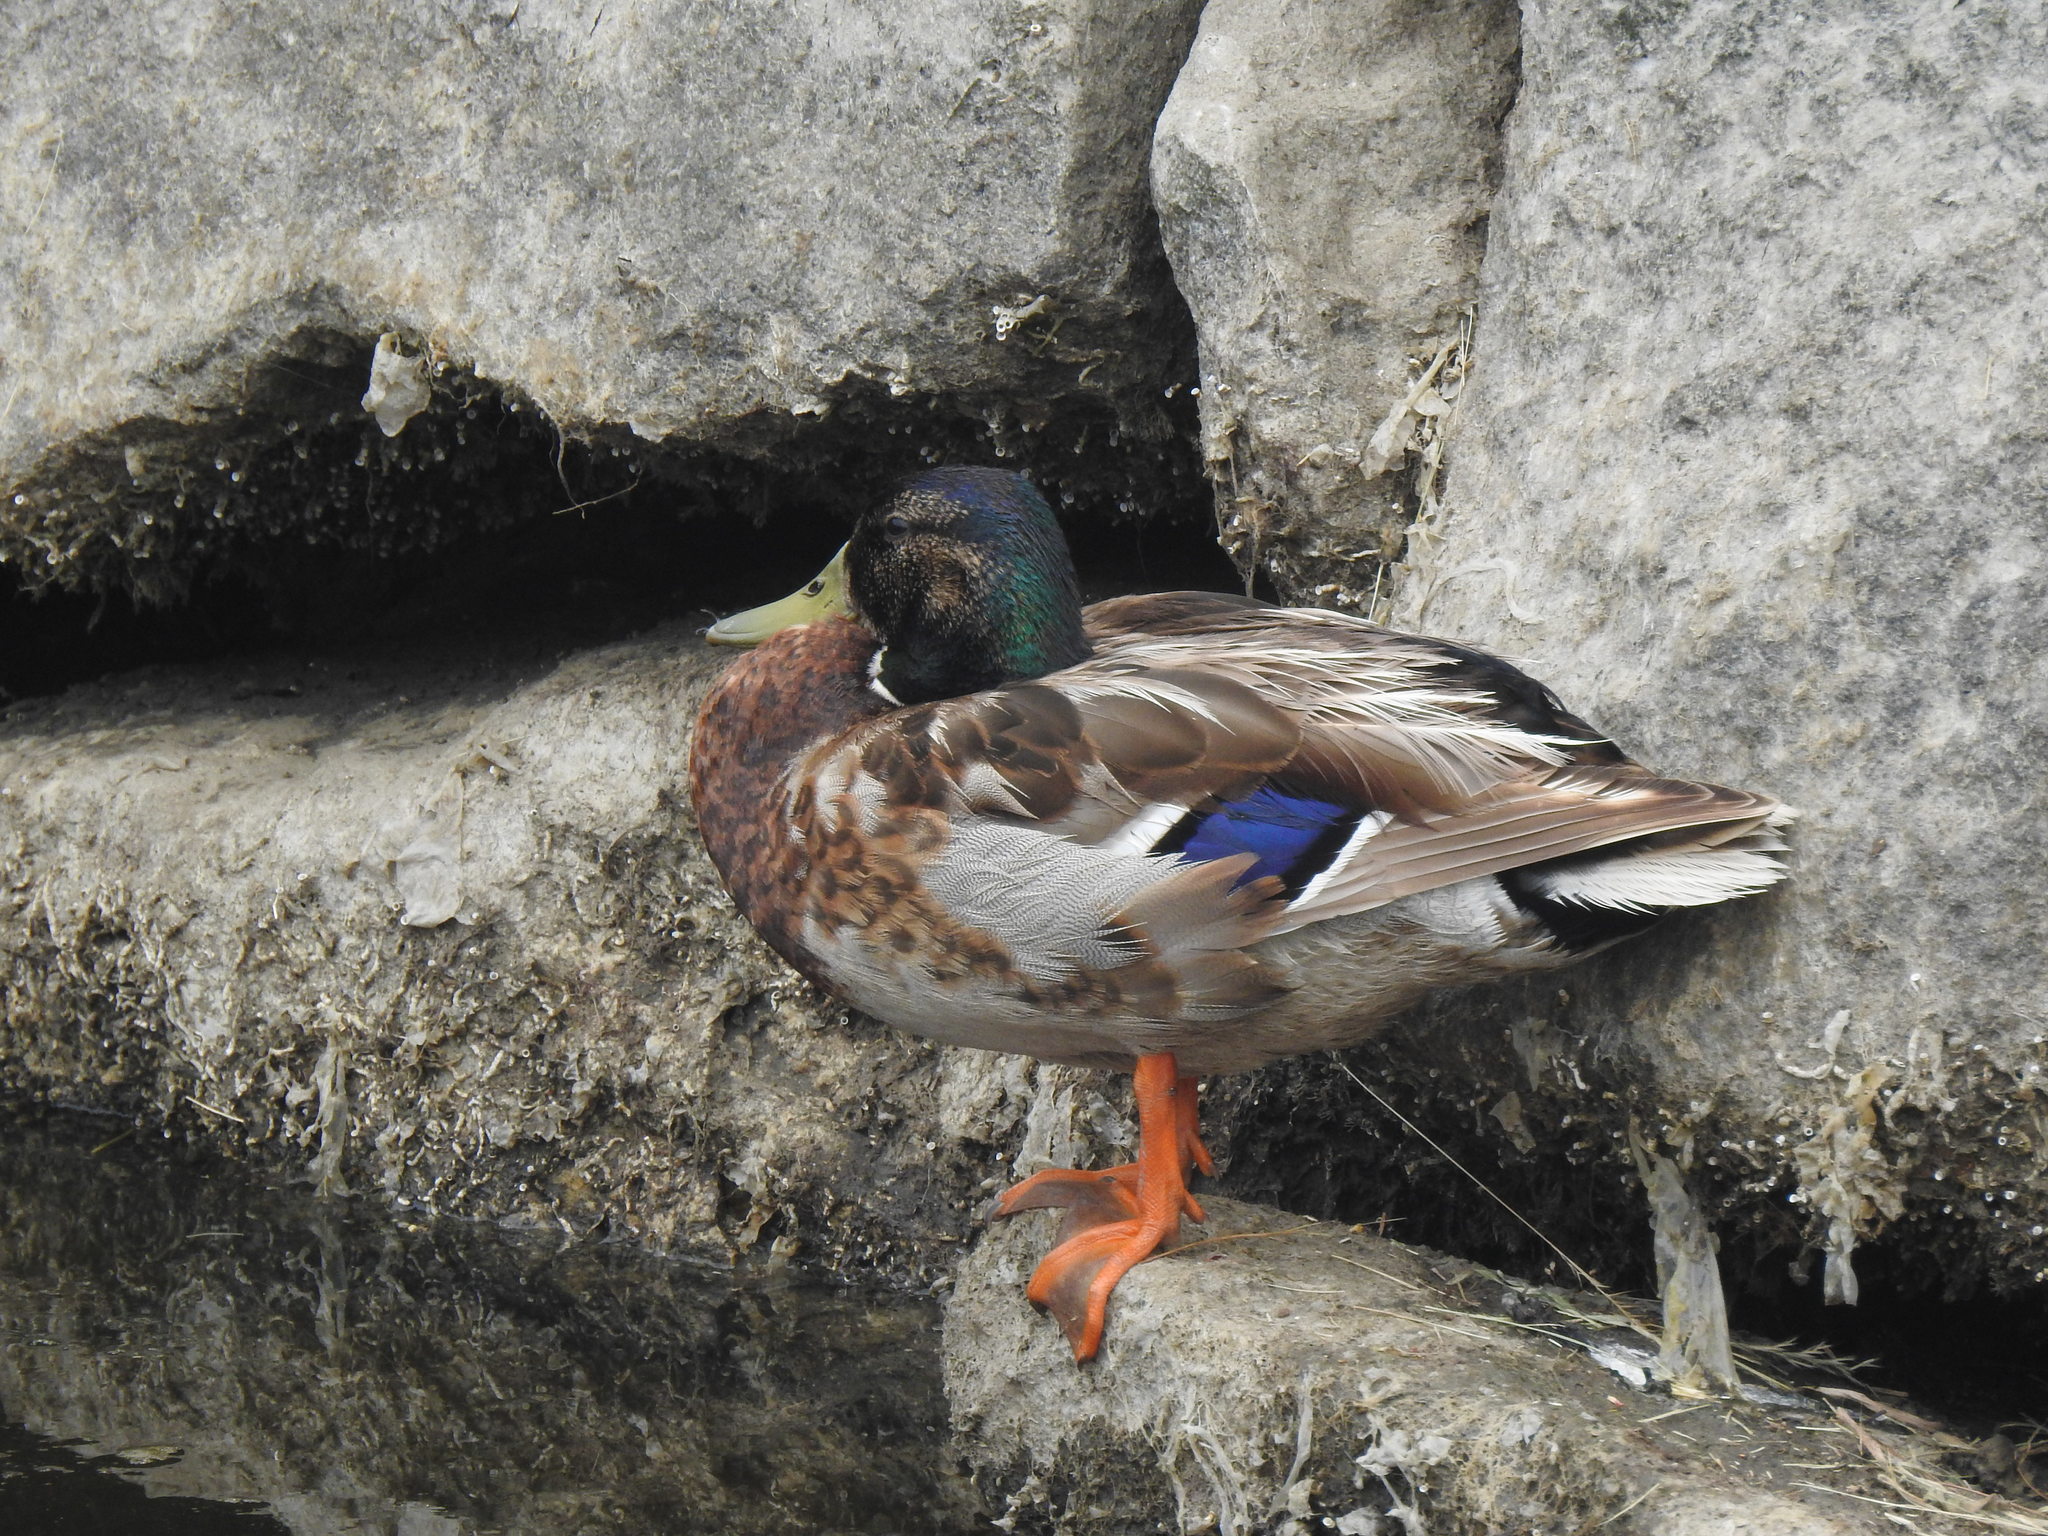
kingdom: Animalia
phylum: Chordata
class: Aves
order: Anseriformes
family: Anatidae
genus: Anas
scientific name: Anas platyrhynchos
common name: Mallard
